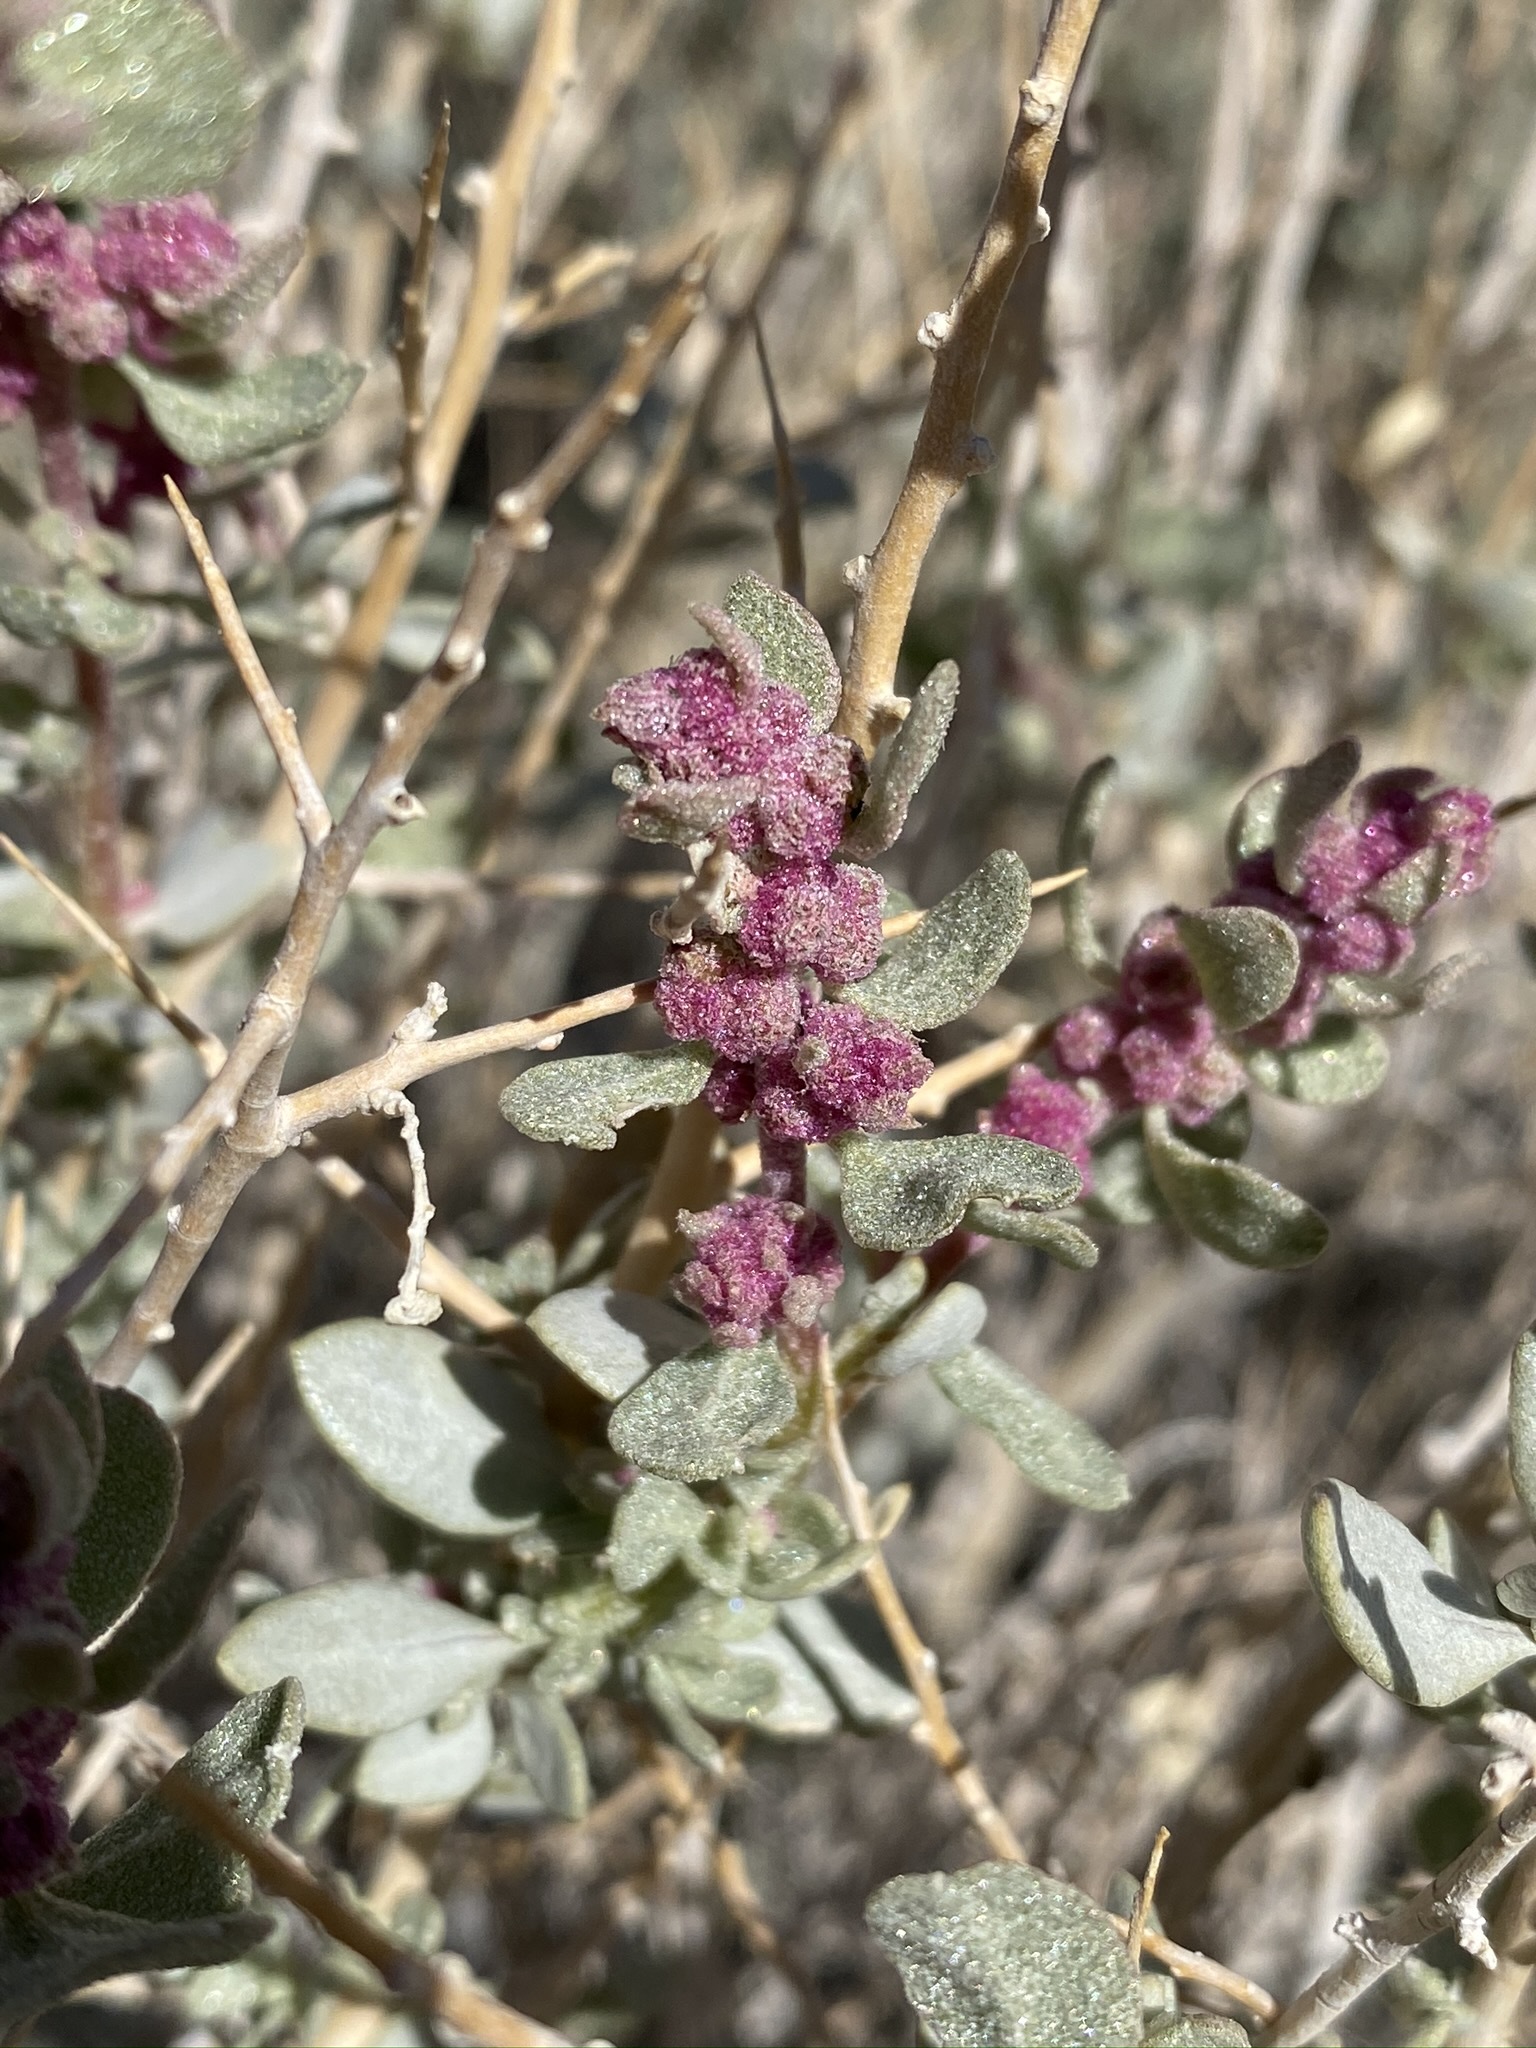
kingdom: Plantae
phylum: Tracheophyta
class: Magnoliopsida
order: Caryophyllales
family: Amaranthaceae
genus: Atriplex
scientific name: Atriplex confertifolia
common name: Shadscale
